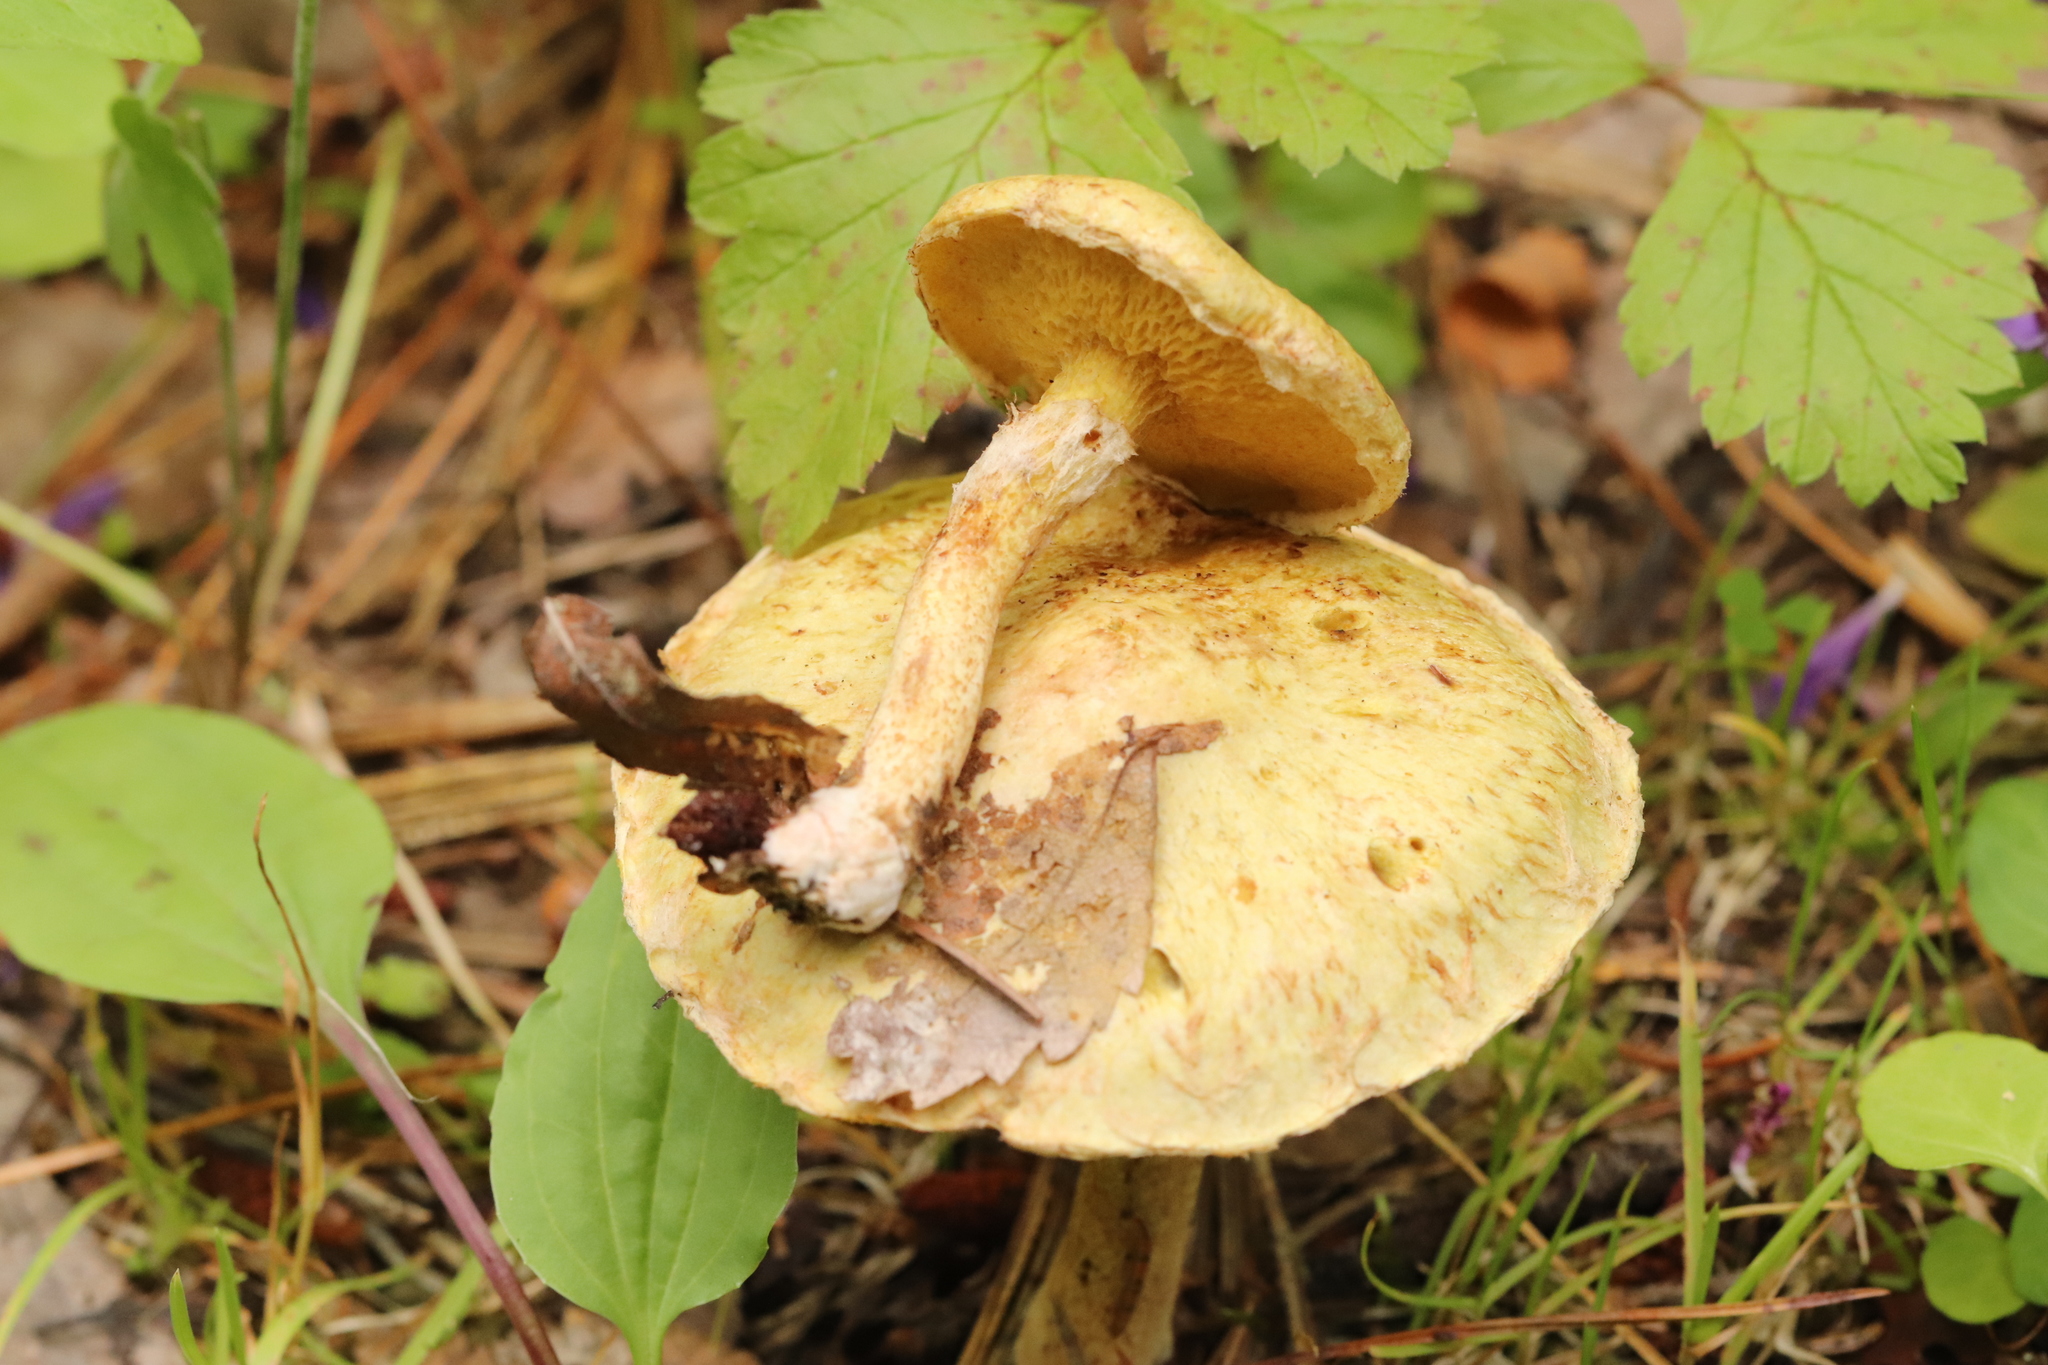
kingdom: Fungi
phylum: Basidiomycota
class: Agaricomycetes
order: Boletales
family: Suillaceae
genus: Suillus
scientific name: Suillus americanus
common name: Chicken fat mushroom
